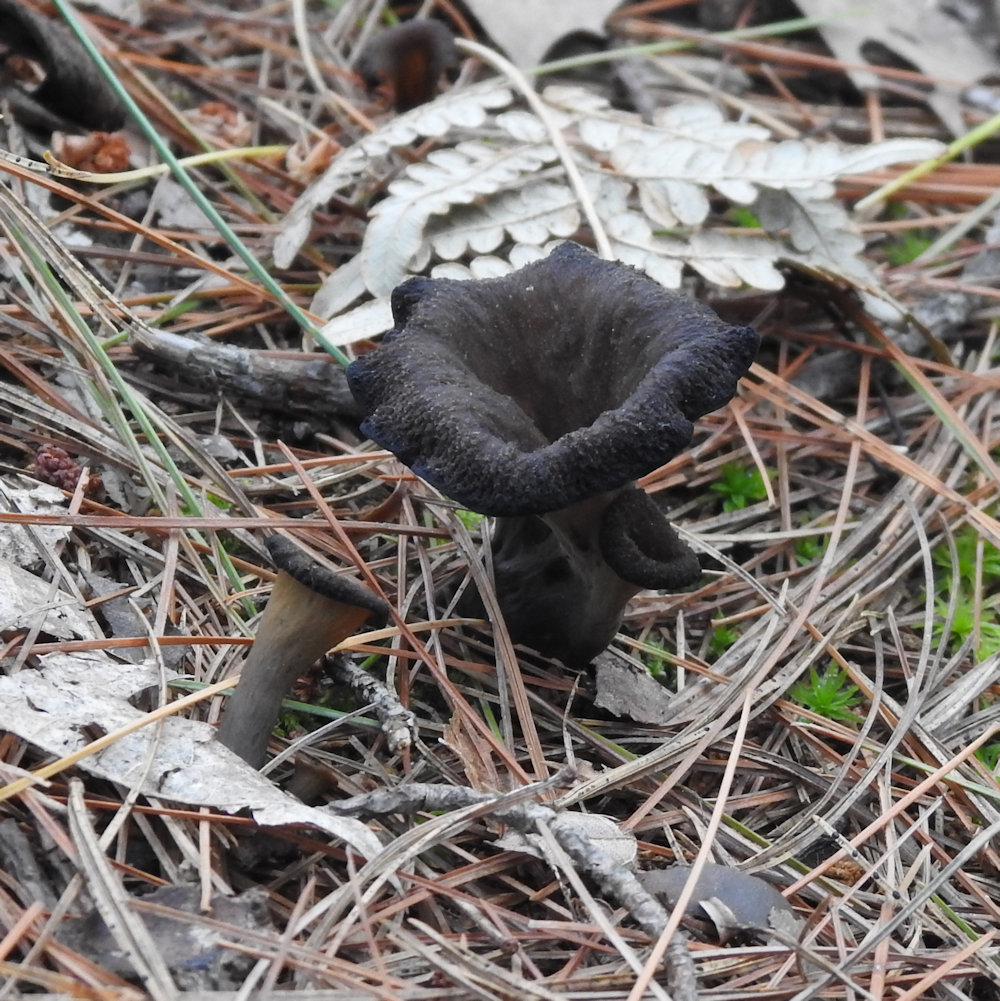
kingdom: Fungi
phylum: Basidiomycota
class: Agaricomycetes
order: Cantharellales
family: Hydnaceae
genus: Craterellus
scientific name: Craterellus cornucopioides
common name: Horn of plenty
